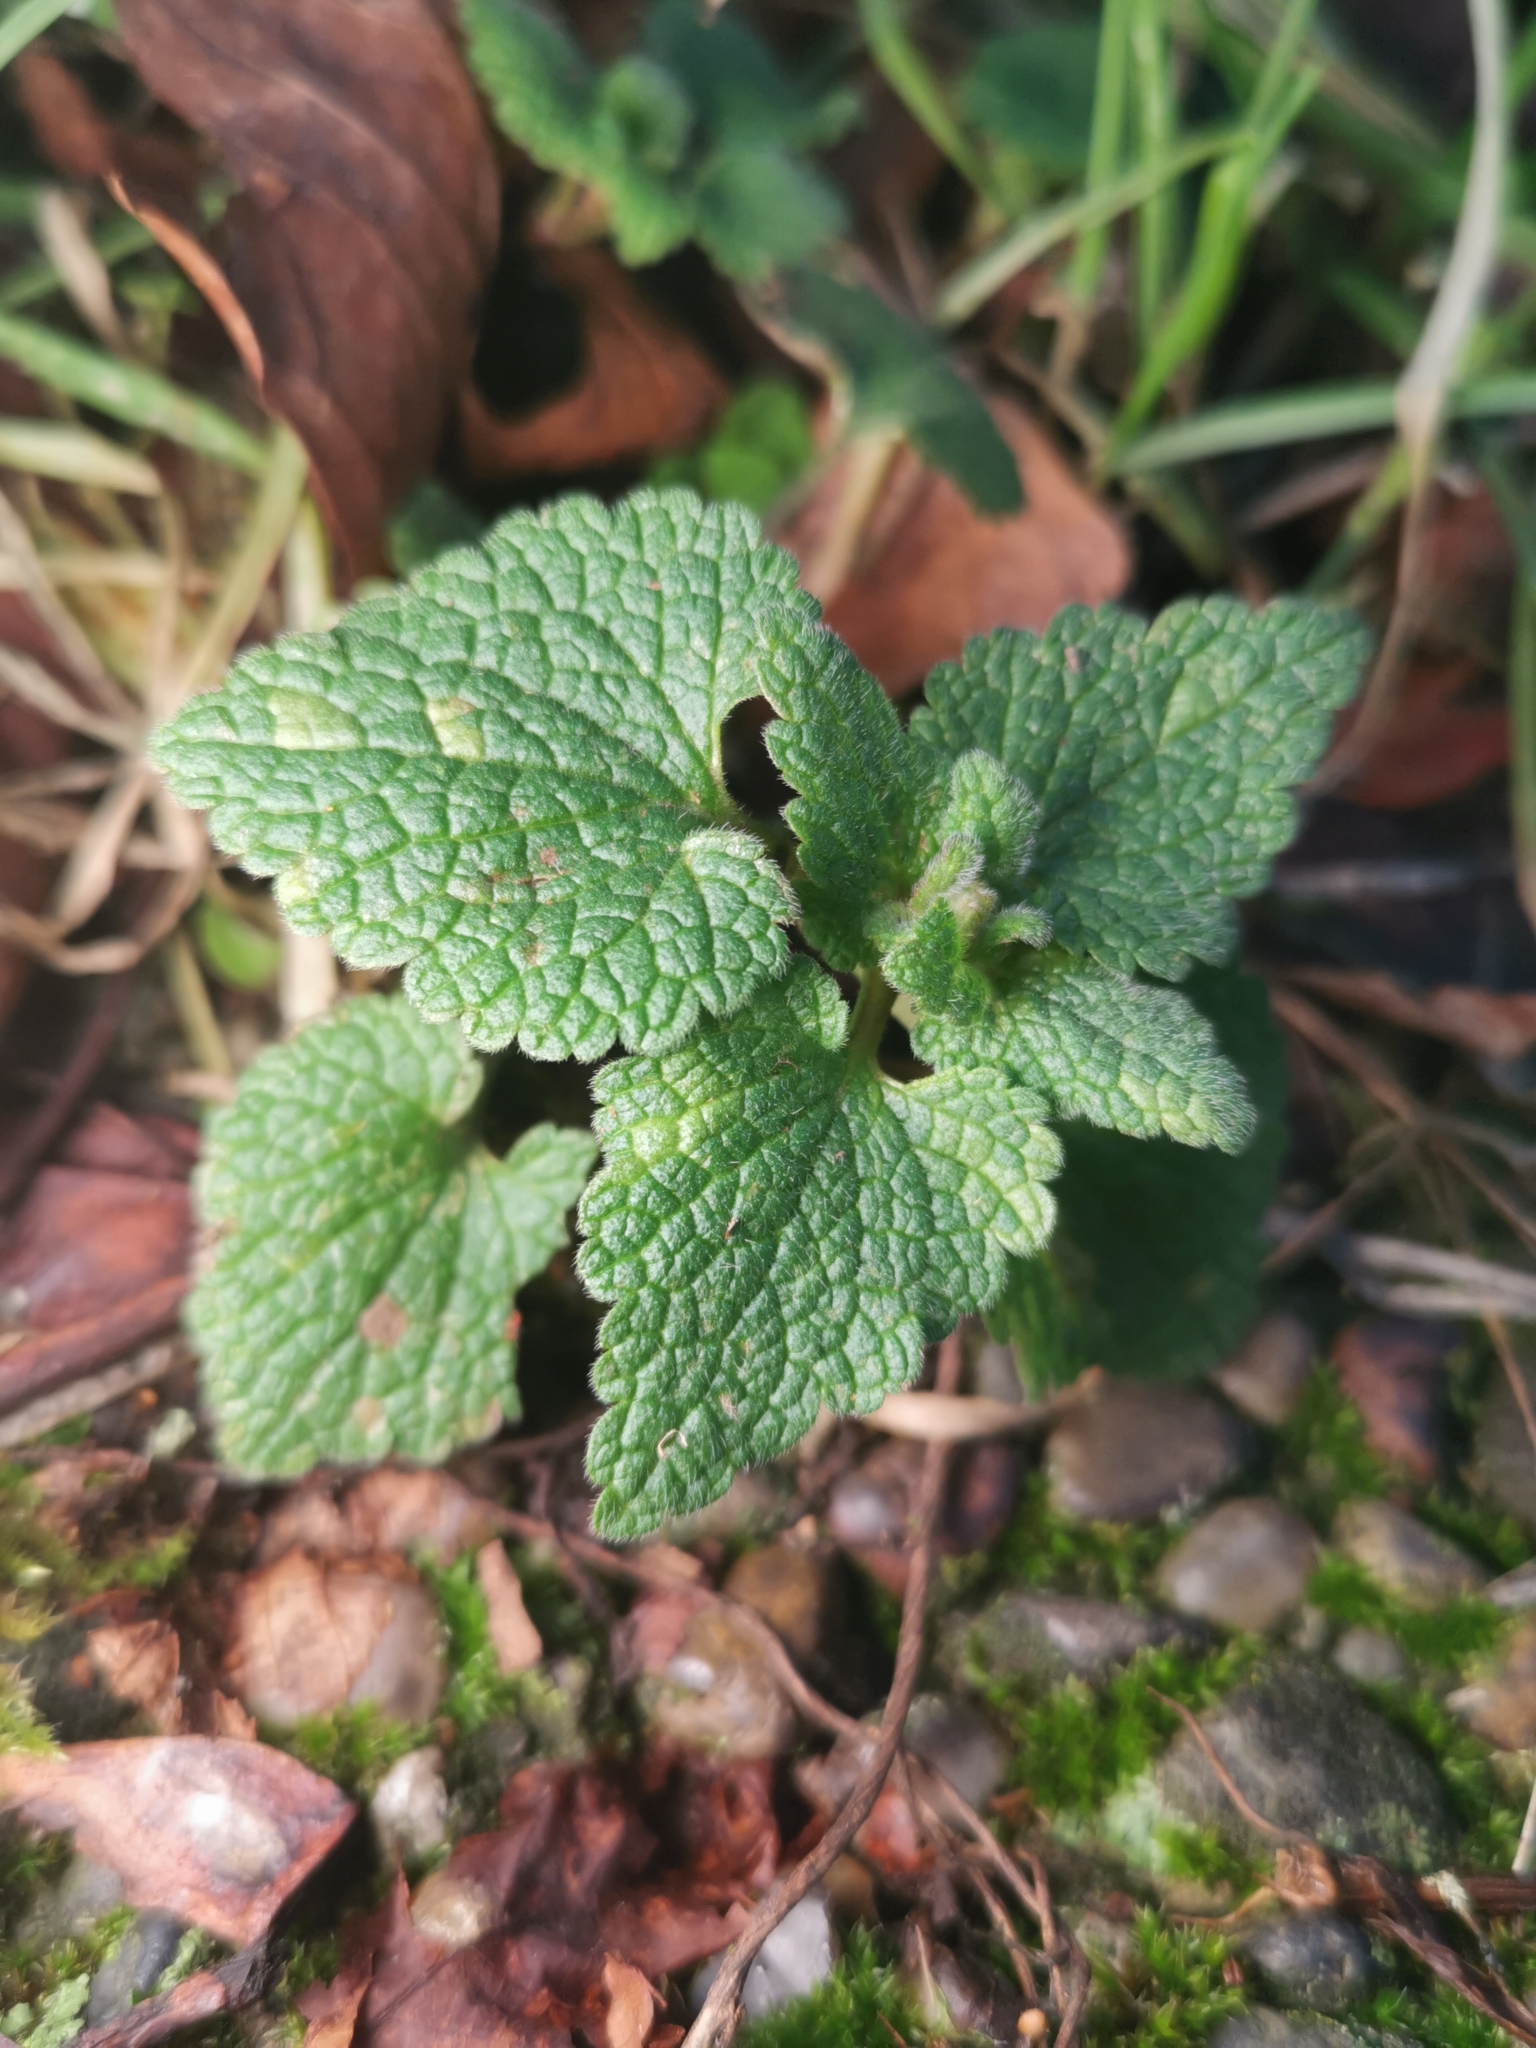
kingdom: Plantae
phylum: Tracheophyta
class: Magnoliopsida
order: Lamiales
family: Lamiaceae
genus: Lamium
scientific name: Lamium purpureum
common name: Red dead-nettle
